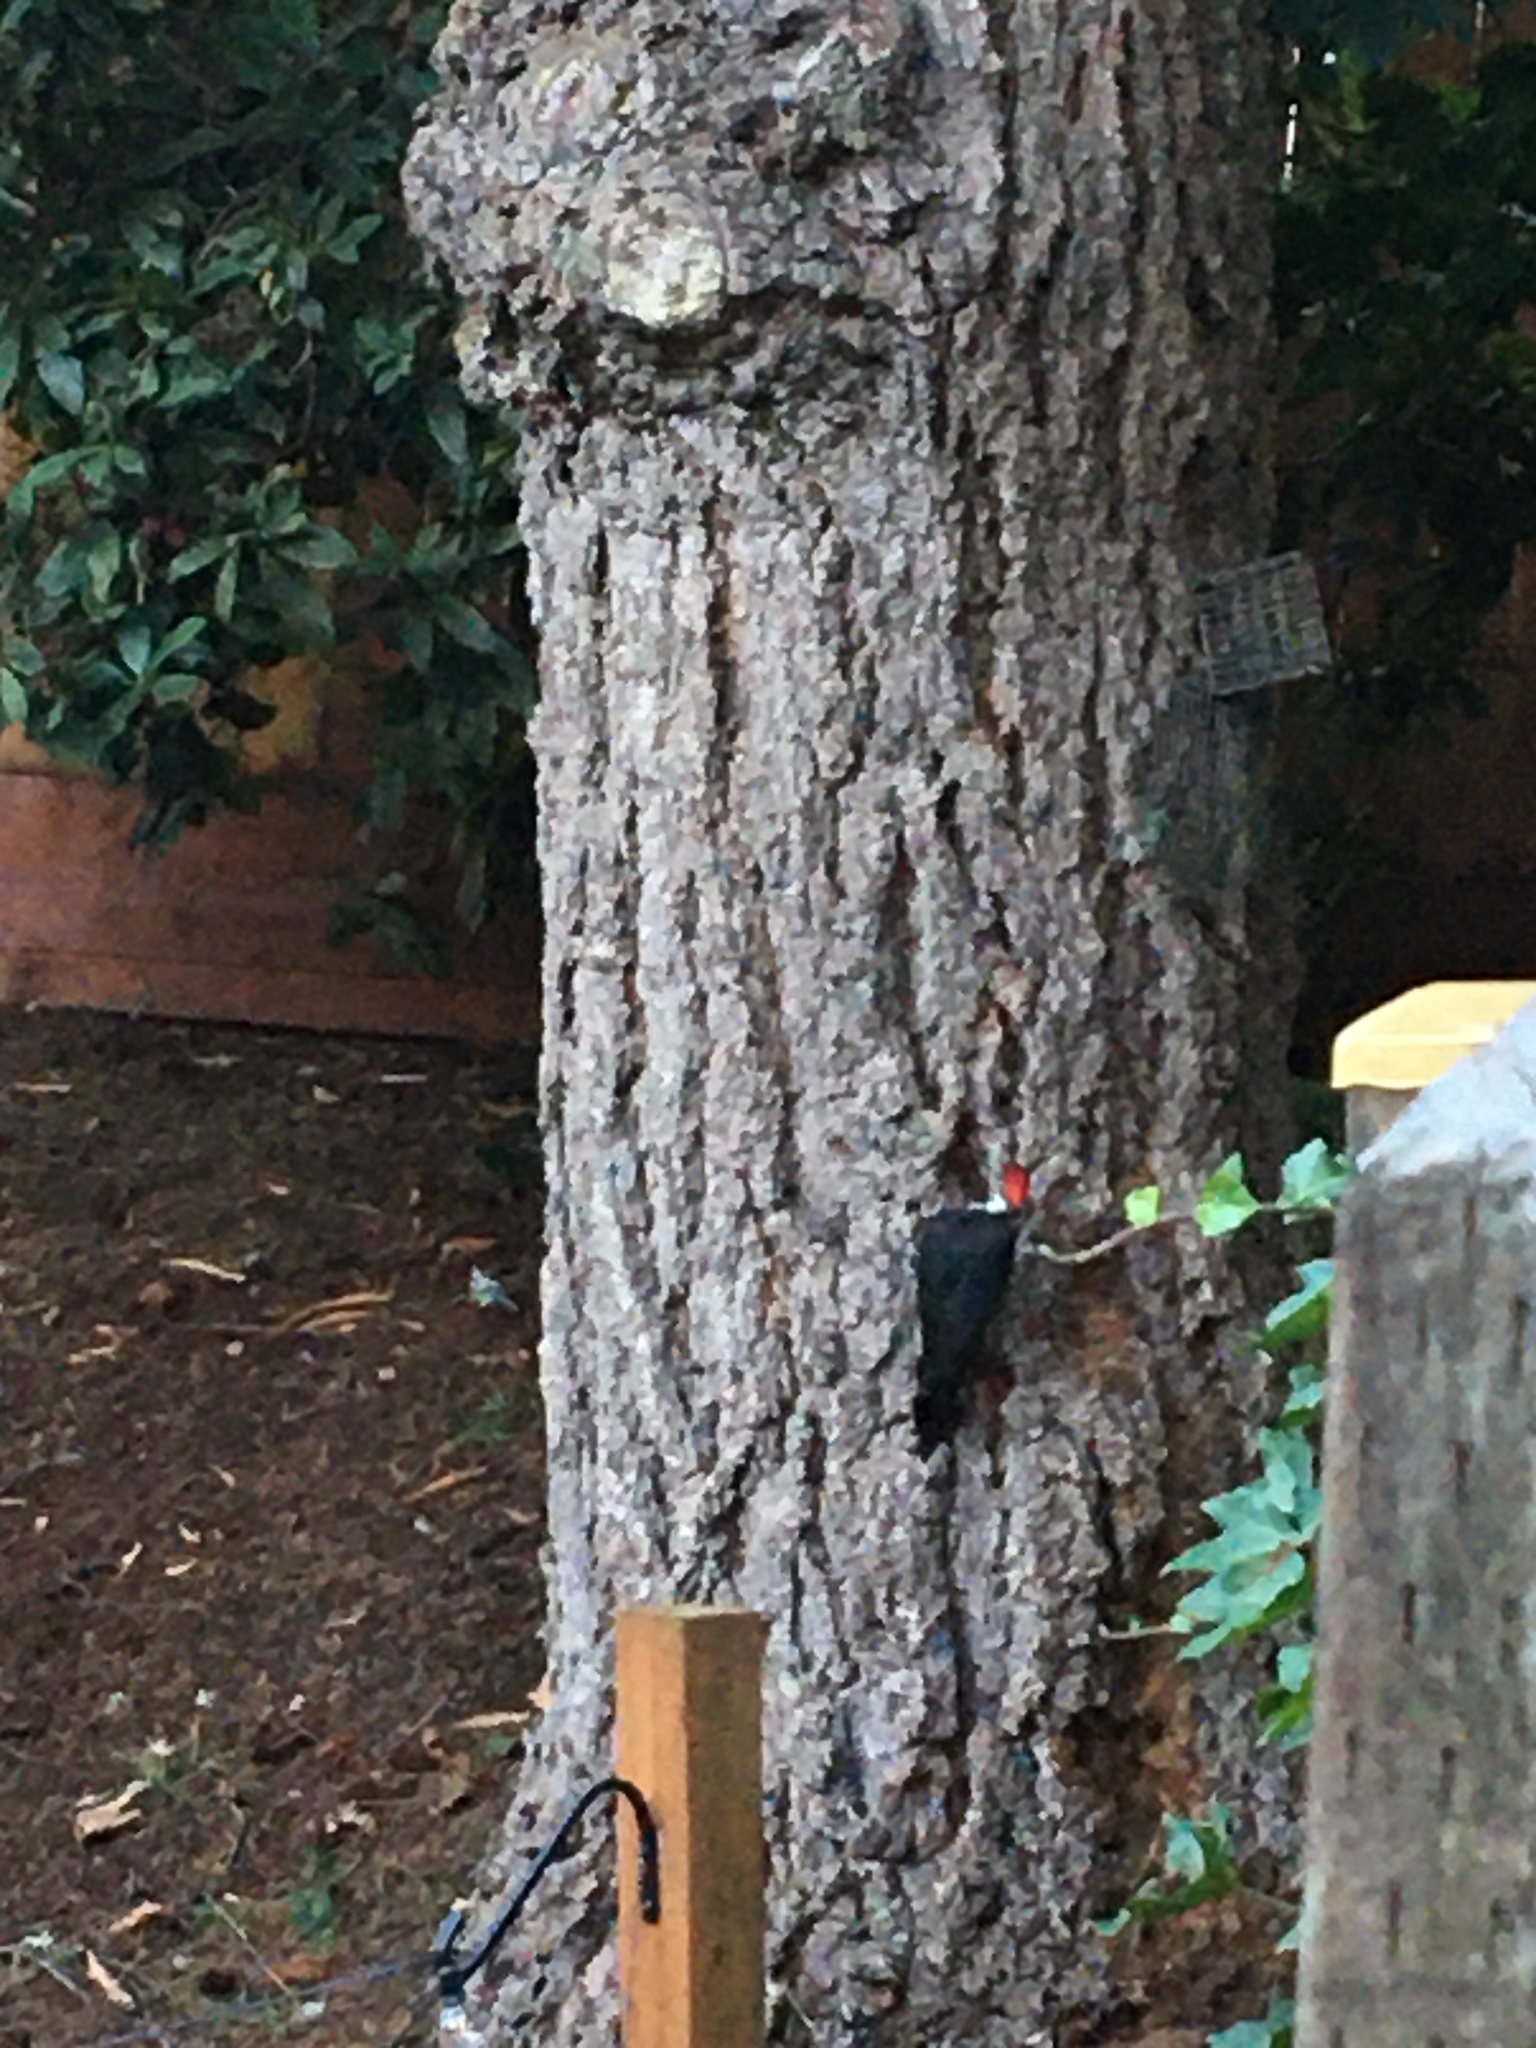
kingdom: Animalia
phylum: Chordata
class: Aves
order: Piciformes
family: Picidae
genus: Dryocopus
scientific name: Dryocopus pileatus
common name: Pileated woodpecker
